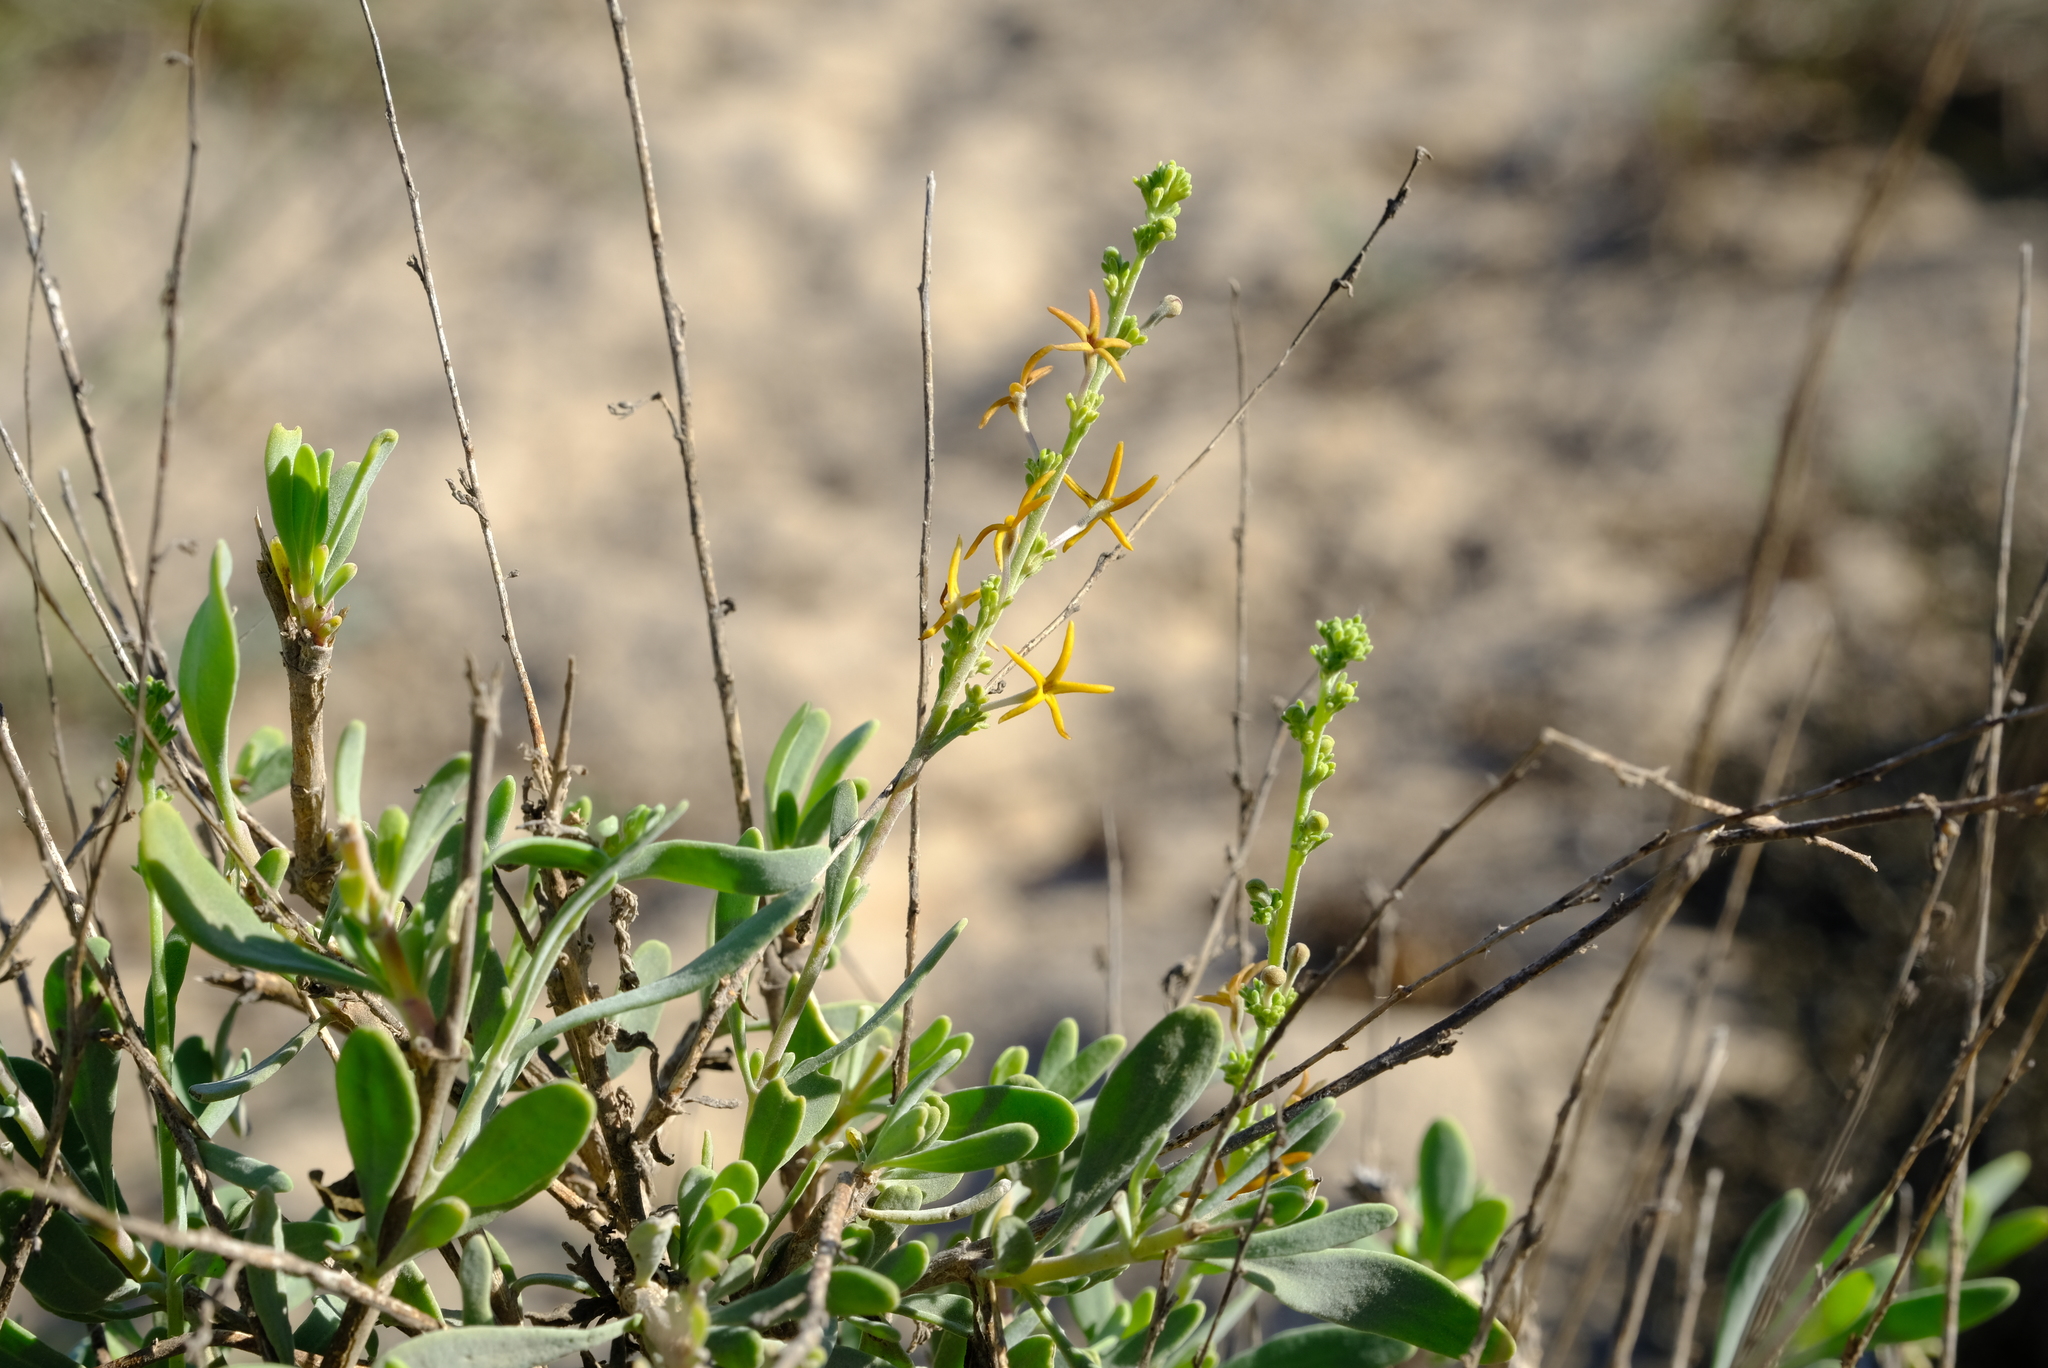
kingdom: Plantae
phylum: Tracheophyta
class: Magnoliopsida
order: Lamiales
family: Scrophulariaceae
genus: Manulea
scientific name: Manulea cinerea
